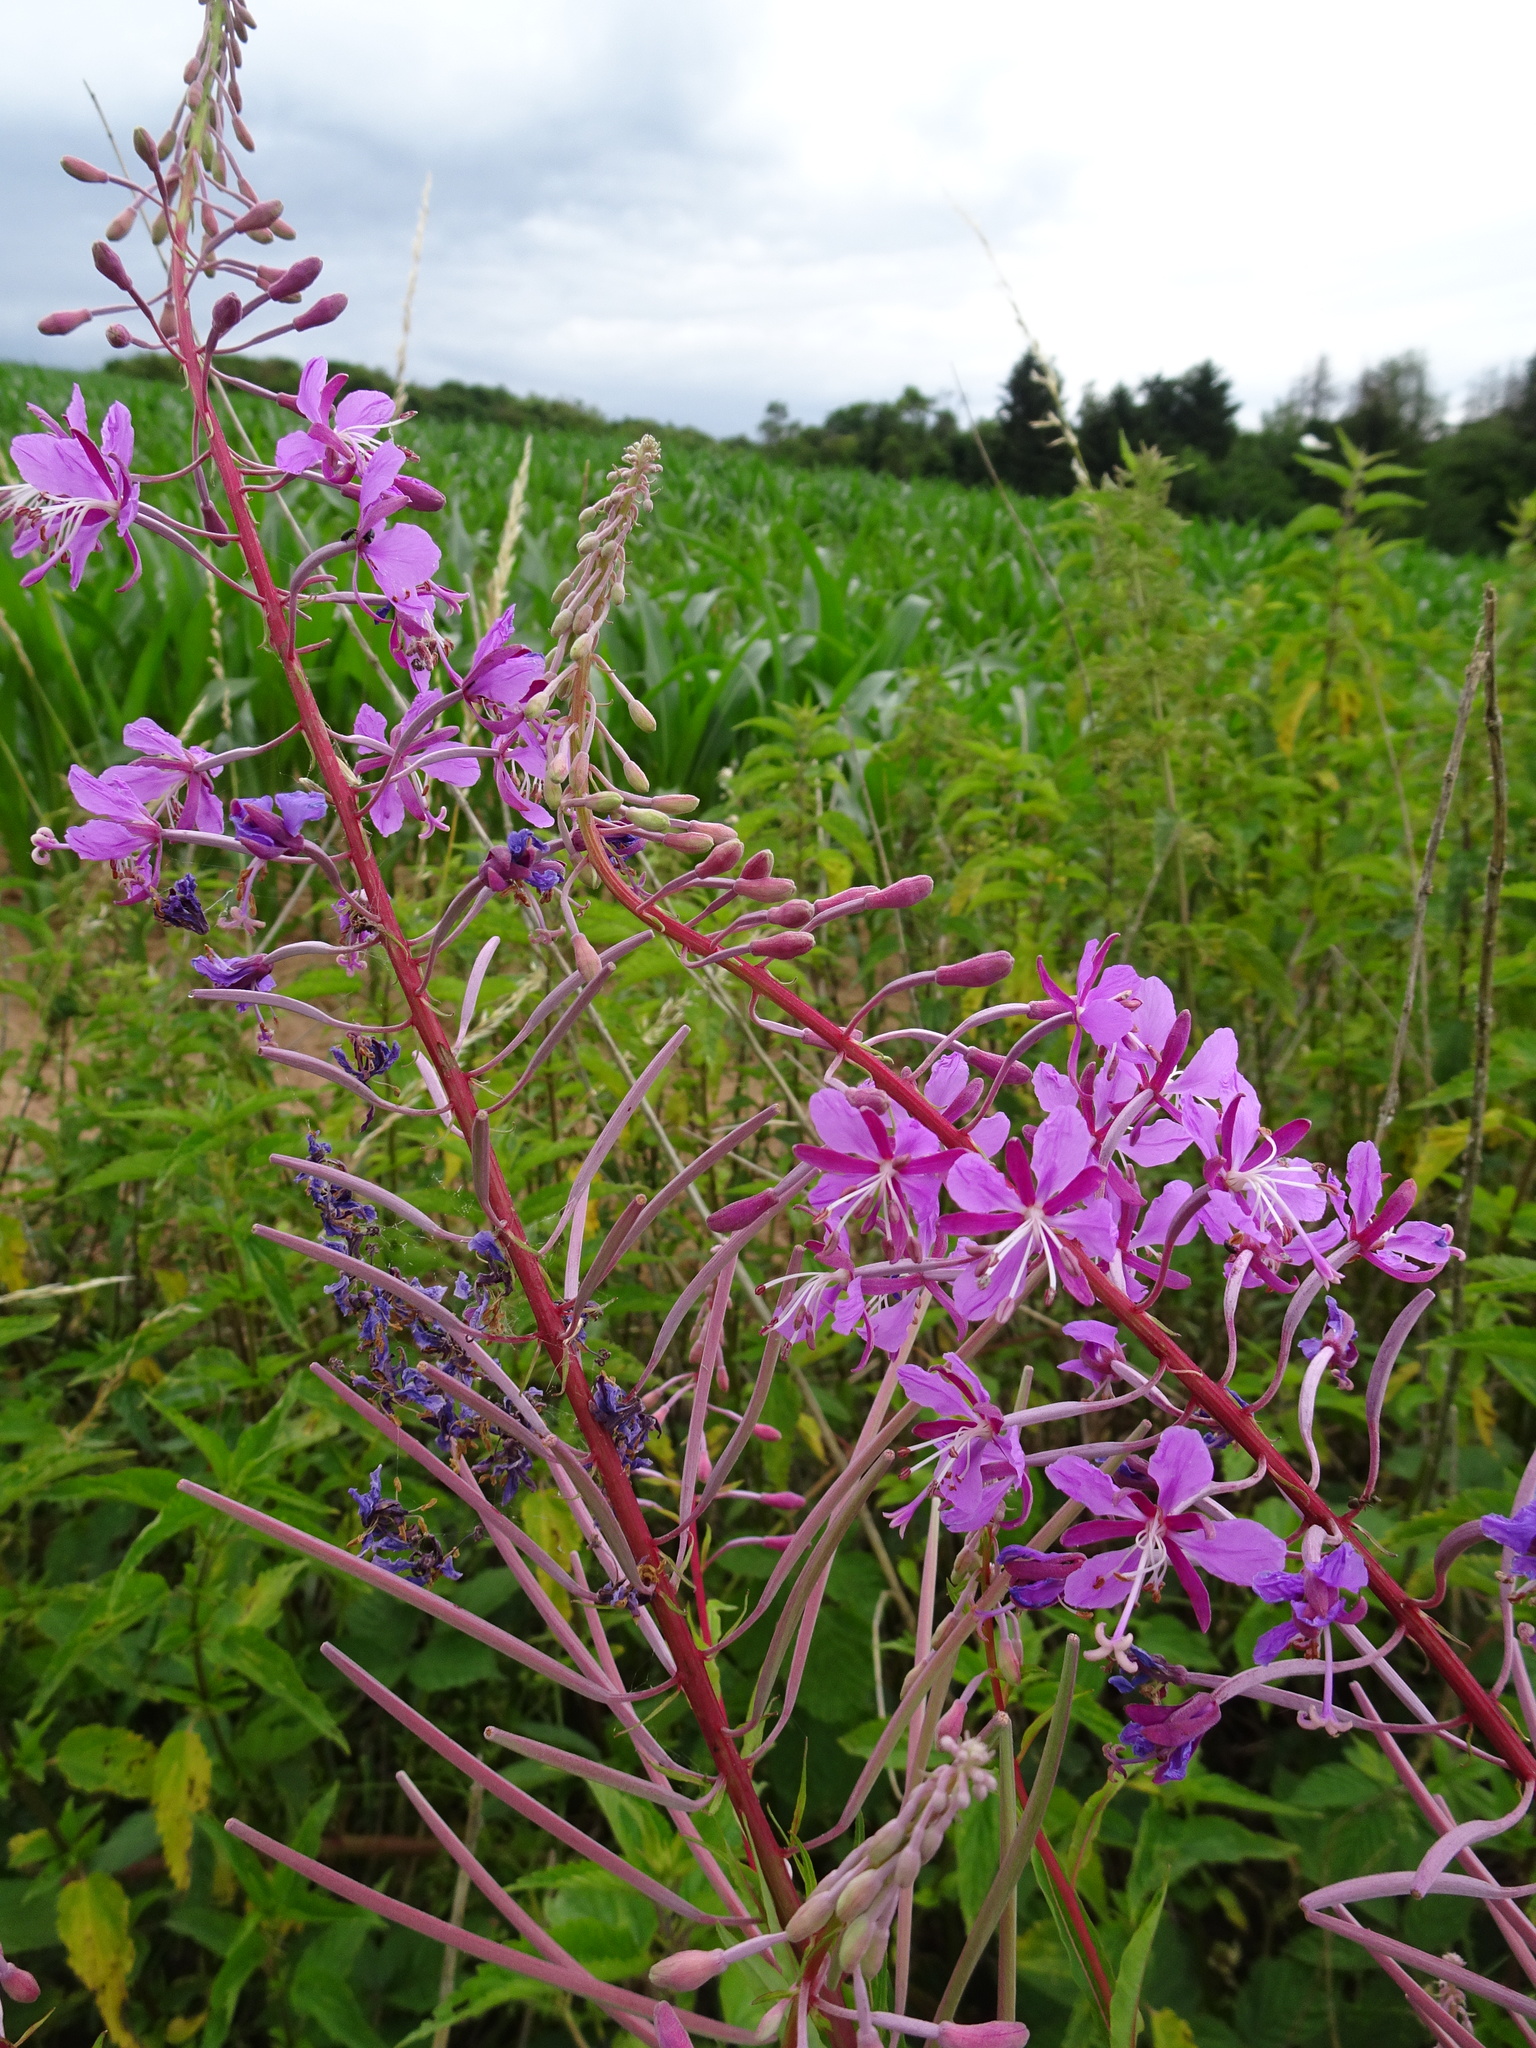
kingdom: Plantae
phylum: Tracheophyta
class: Magnoliopsida
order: Myrtales
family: Onagraceae
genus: Chamaenerion
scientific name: Chamaenerion angustifolium
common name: Fireweed
